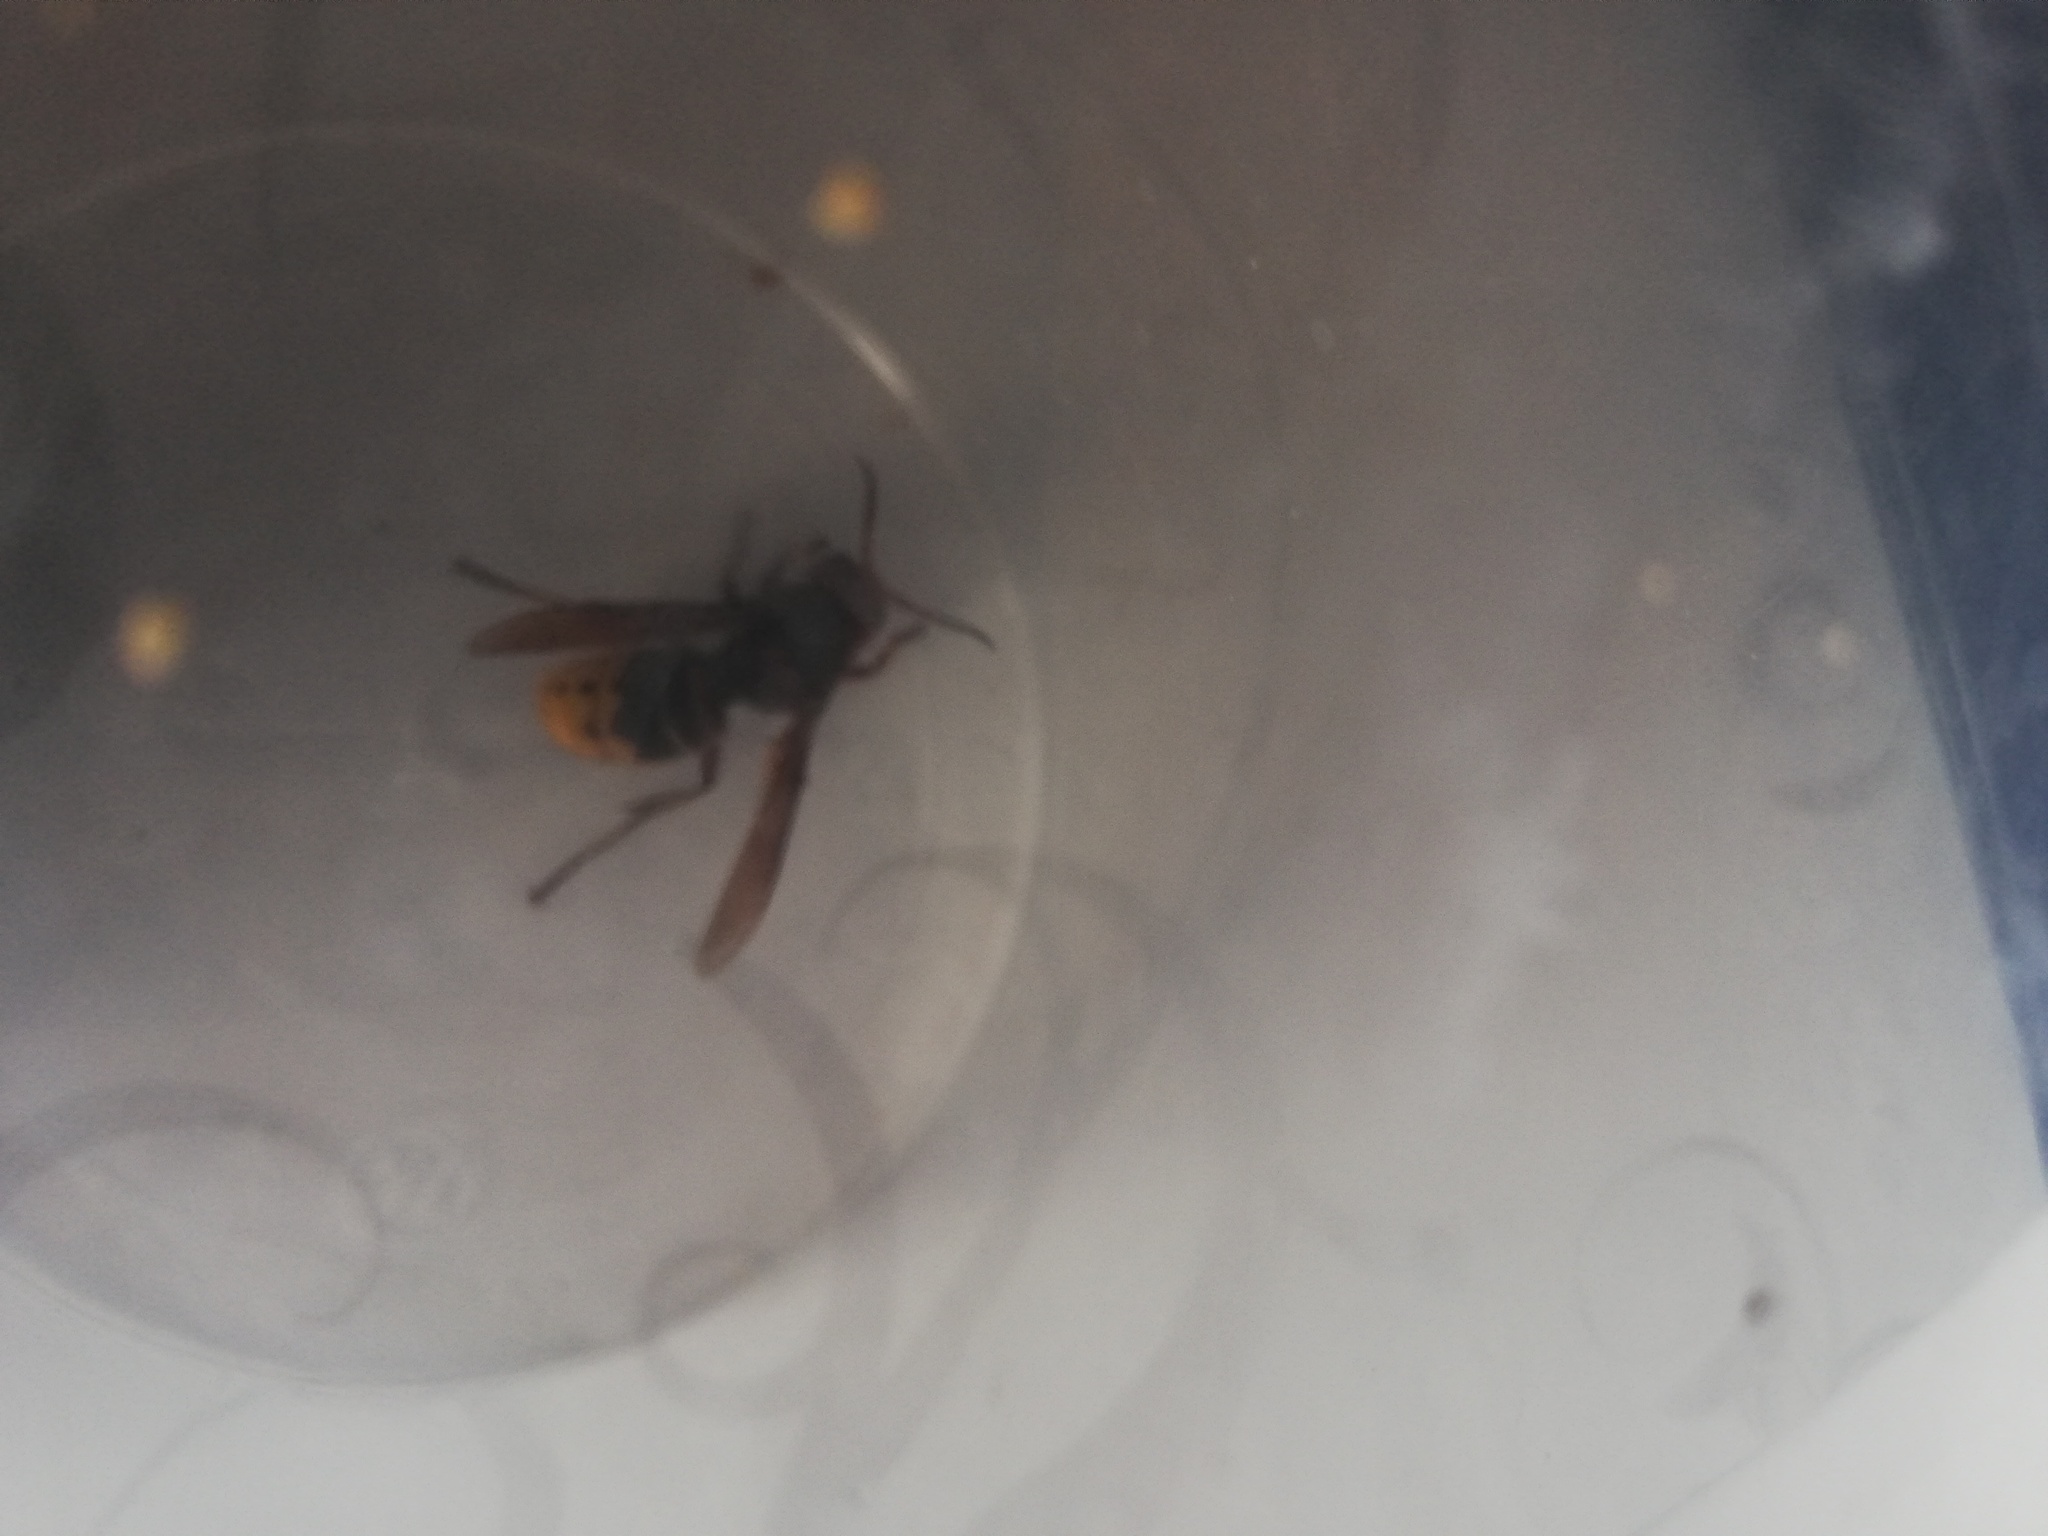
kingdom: Animalia
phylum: Arthropoda
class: Insecta
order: Hymenoptera
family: Vespidae
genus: Vespa
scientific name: Vespa crabro
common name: Hornet
